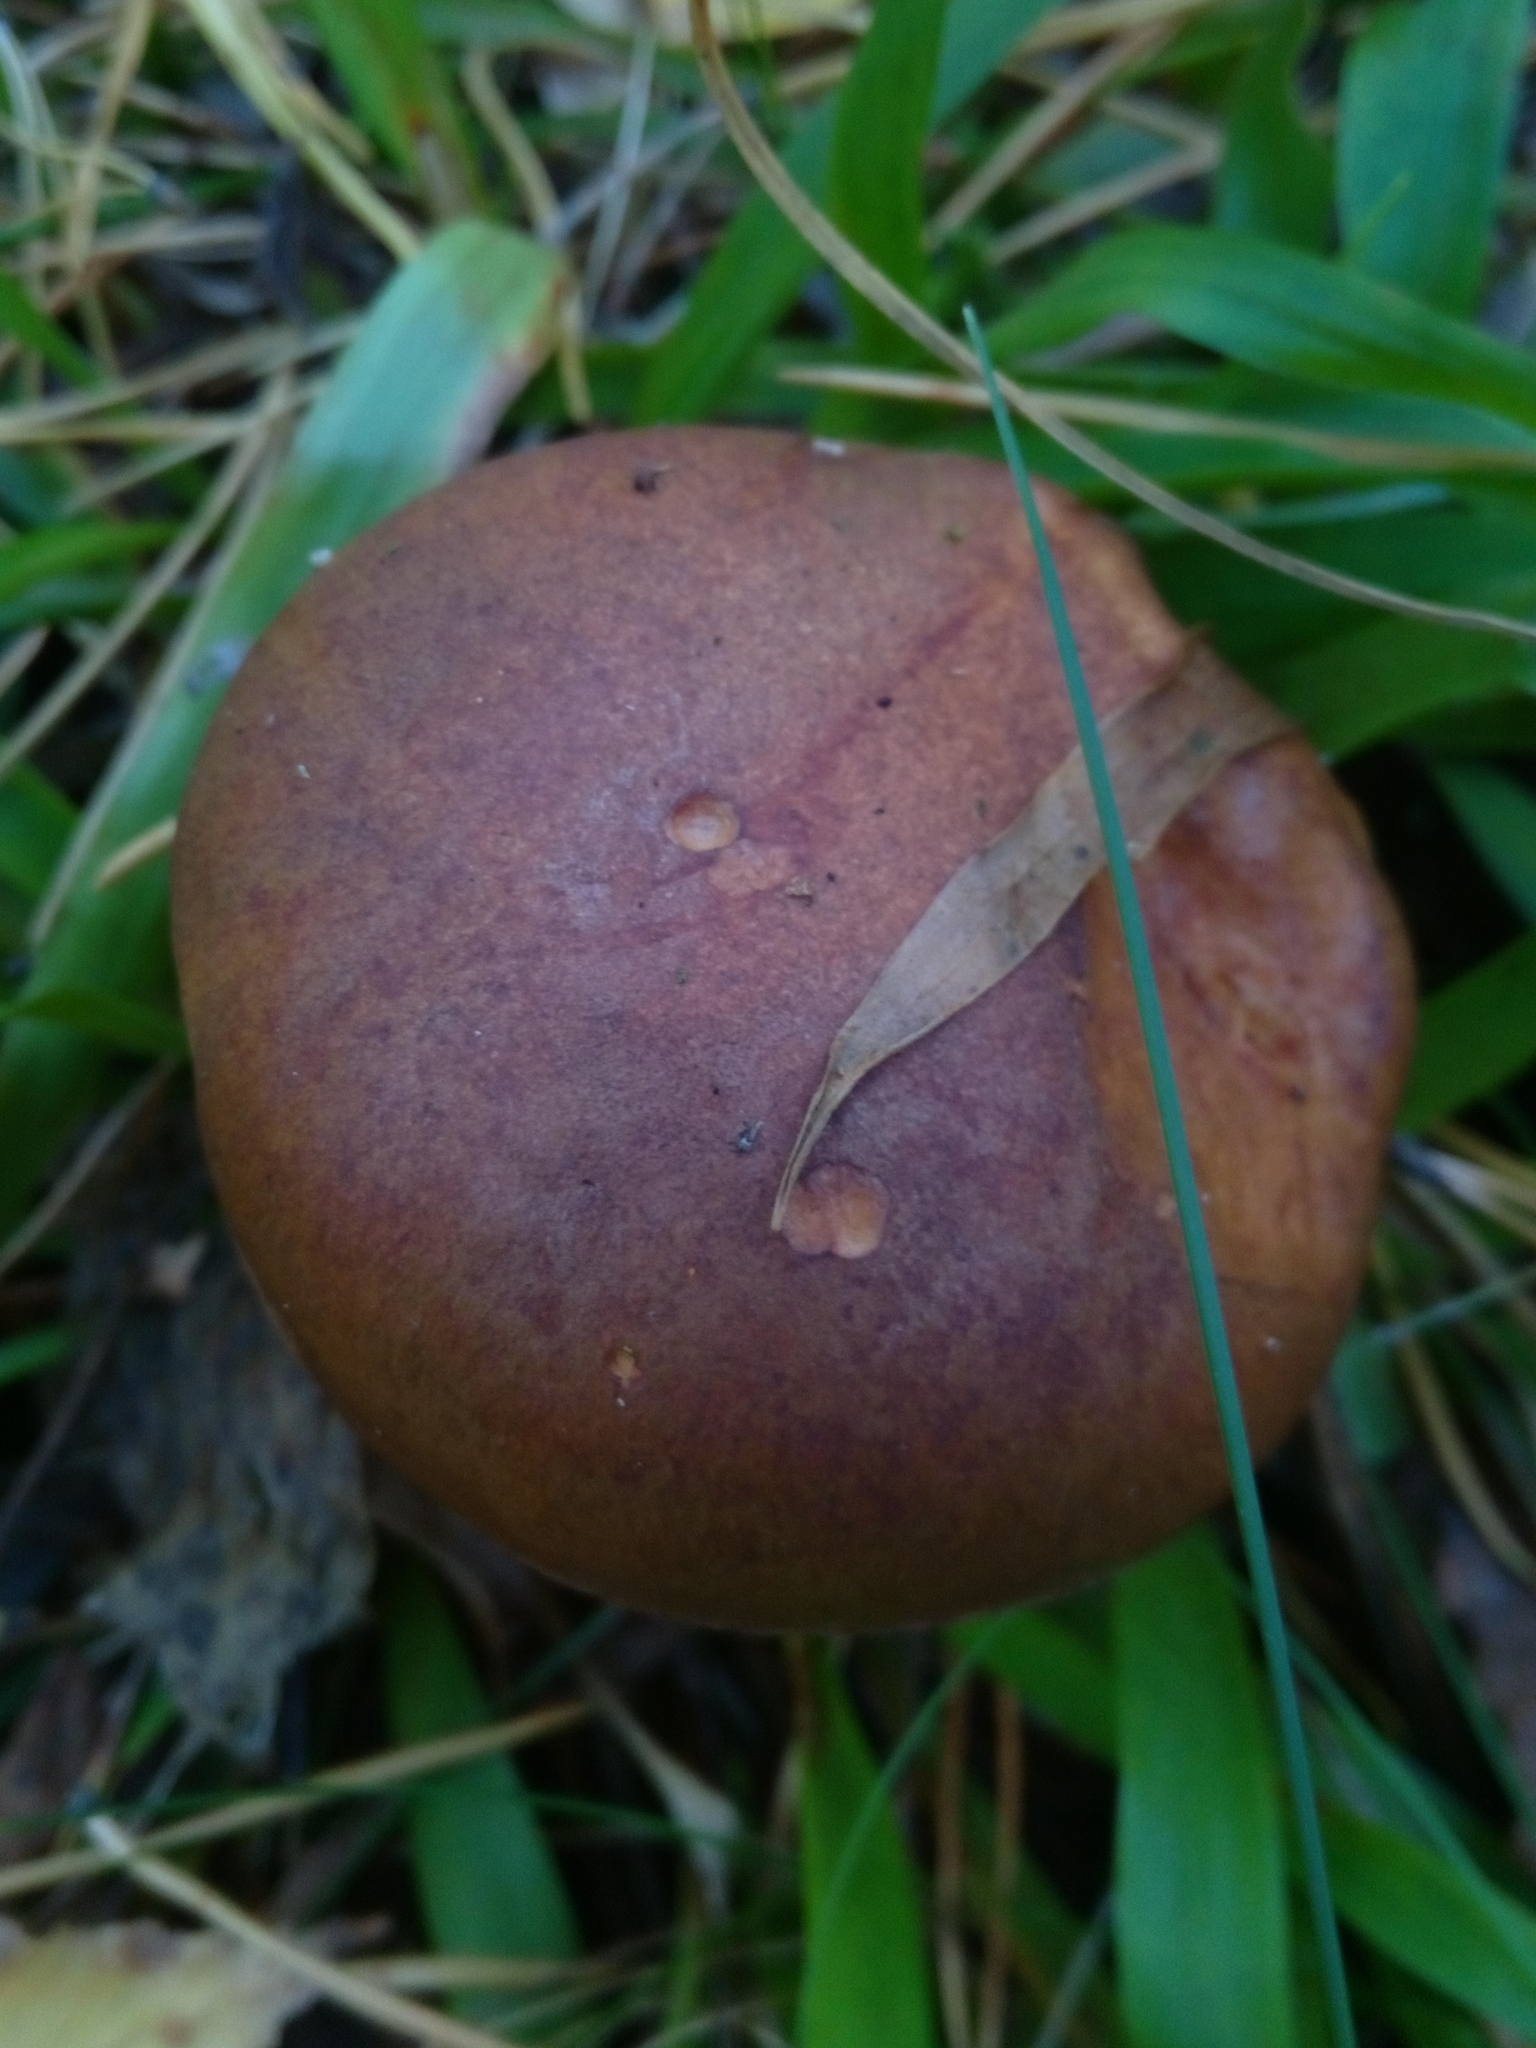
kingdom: Fungi
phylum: Basidiomycota
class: Agaricomycetes
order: Boletales
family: Boletaceae
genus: Imleria
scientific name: Imleria badia
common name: Bay bolete
